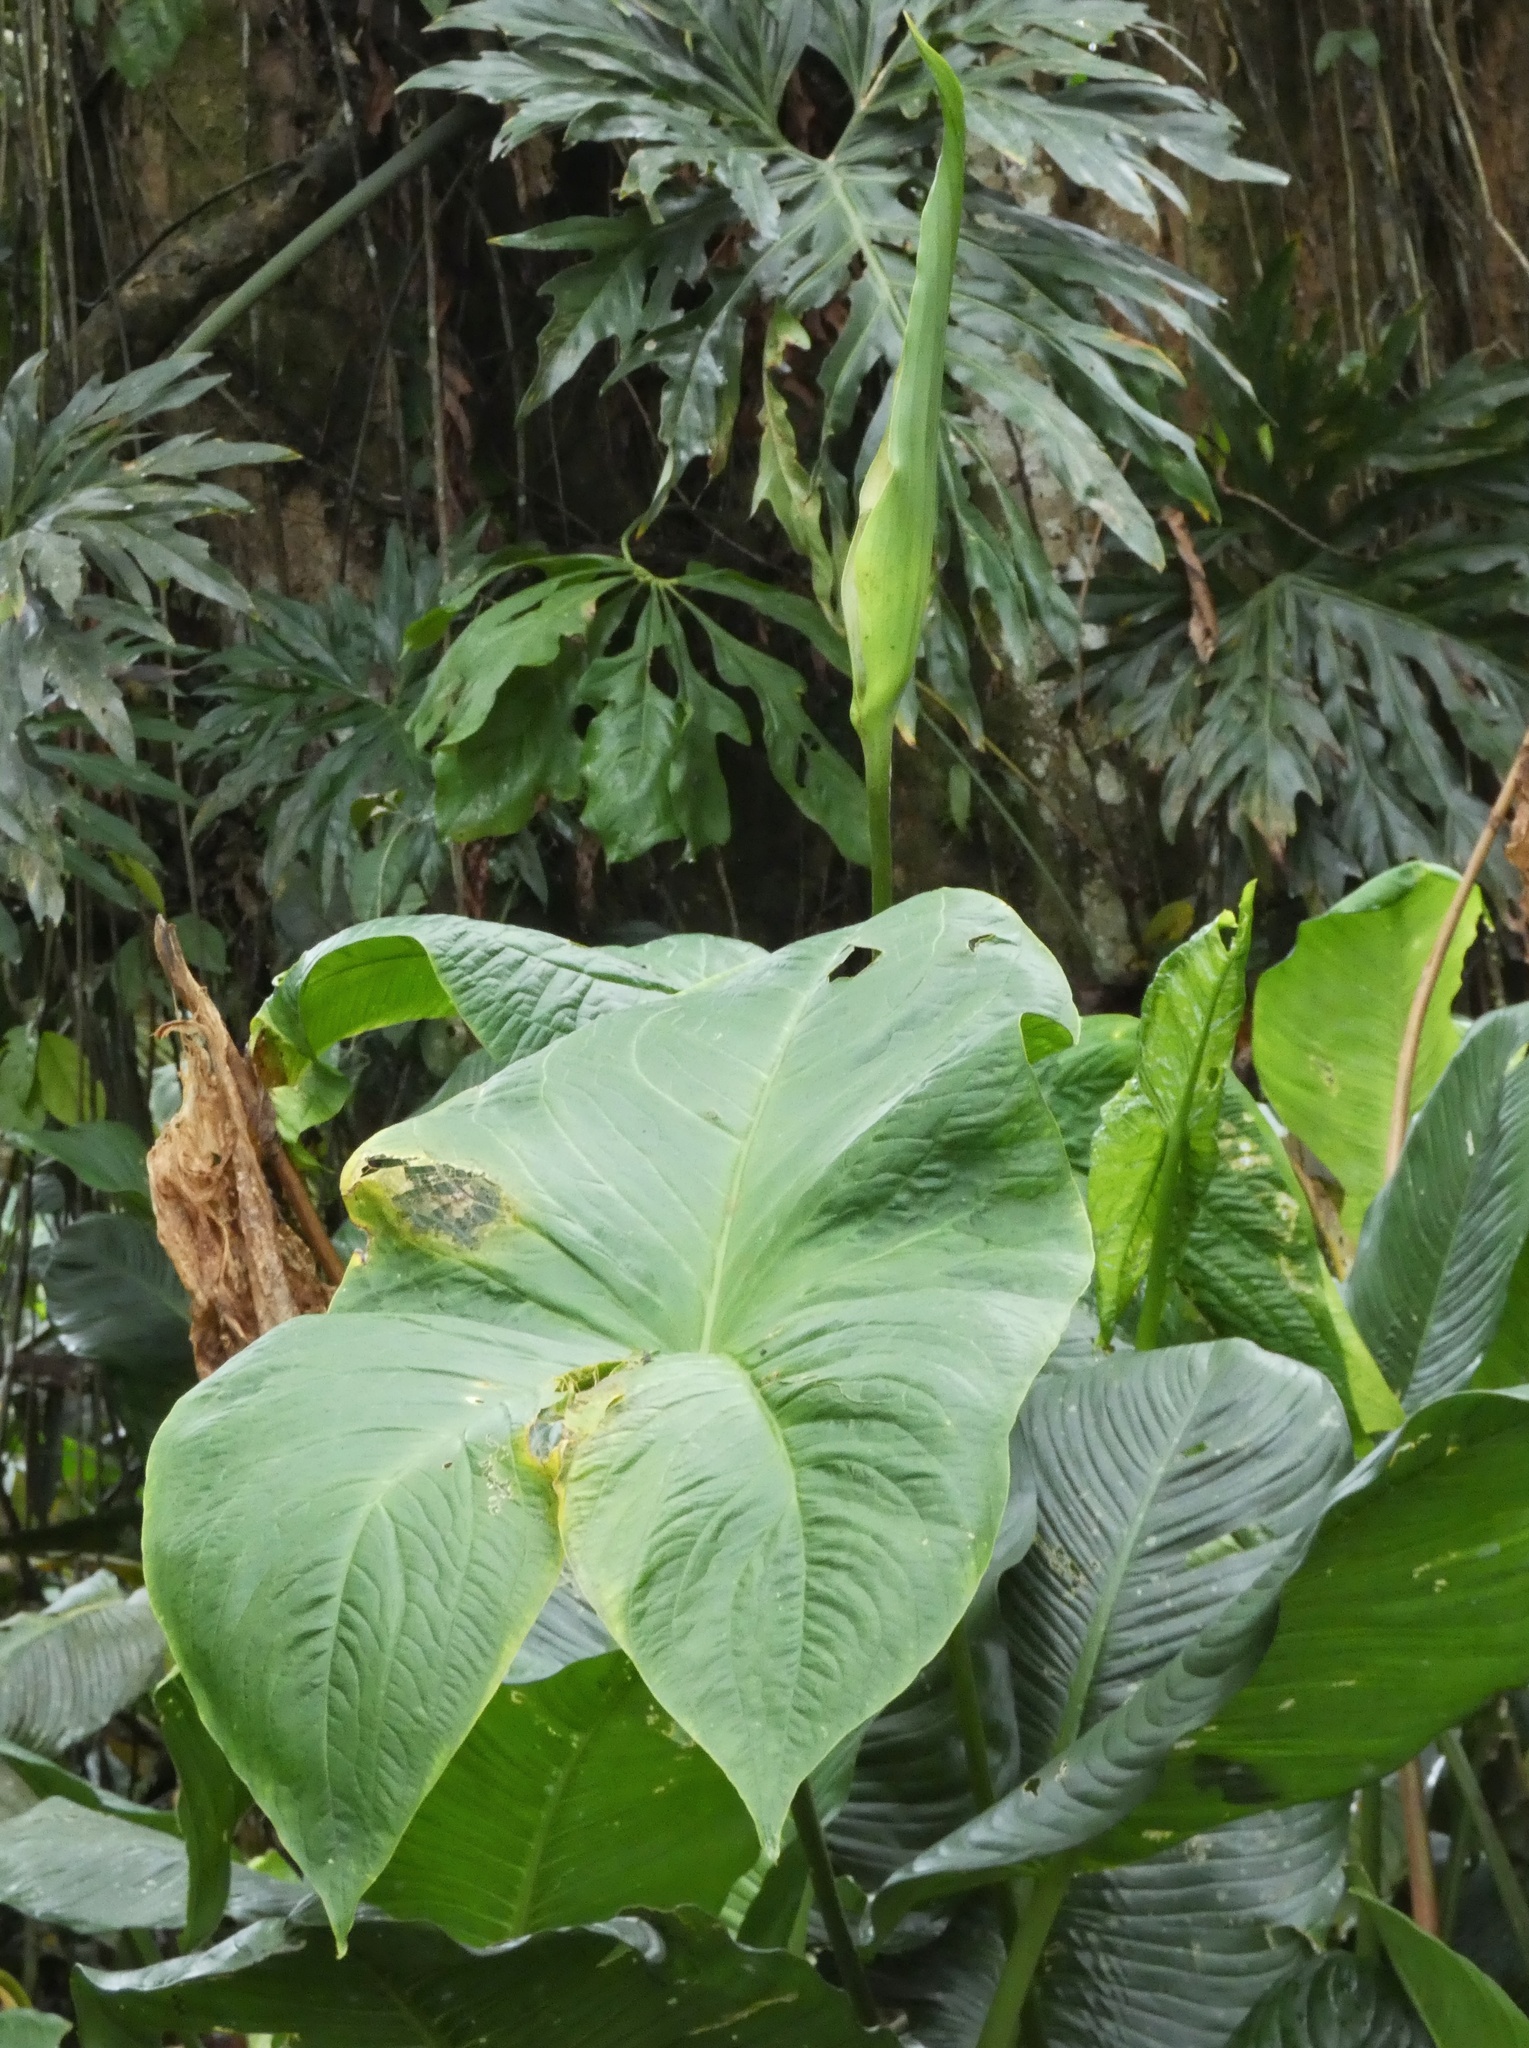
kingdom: Plantae
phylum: Tracheophyta
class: Liliopsida
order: Alismatales
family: Araceae
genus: Urospatha
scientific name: Urospatha caribaea
